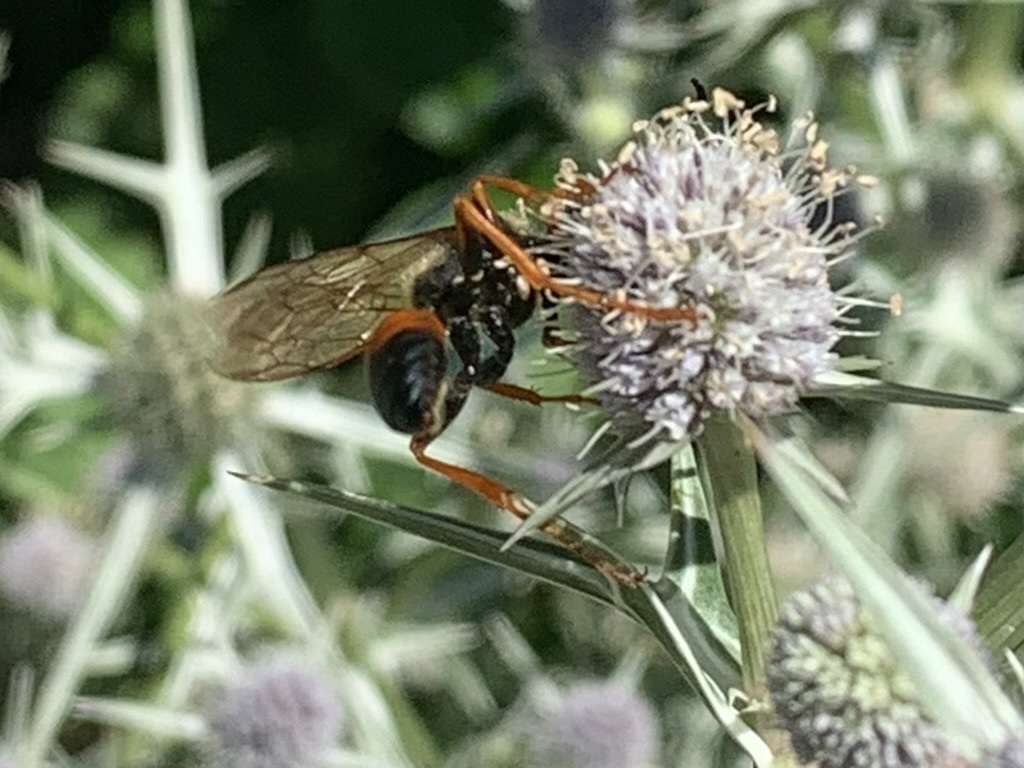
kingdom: Animalia
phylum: Arthropoda
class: Insecta
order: Hymenoptera
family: Sphecidae
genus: Sphex
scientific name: Sphex ichneumoneus
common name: Great golden digger wasp
